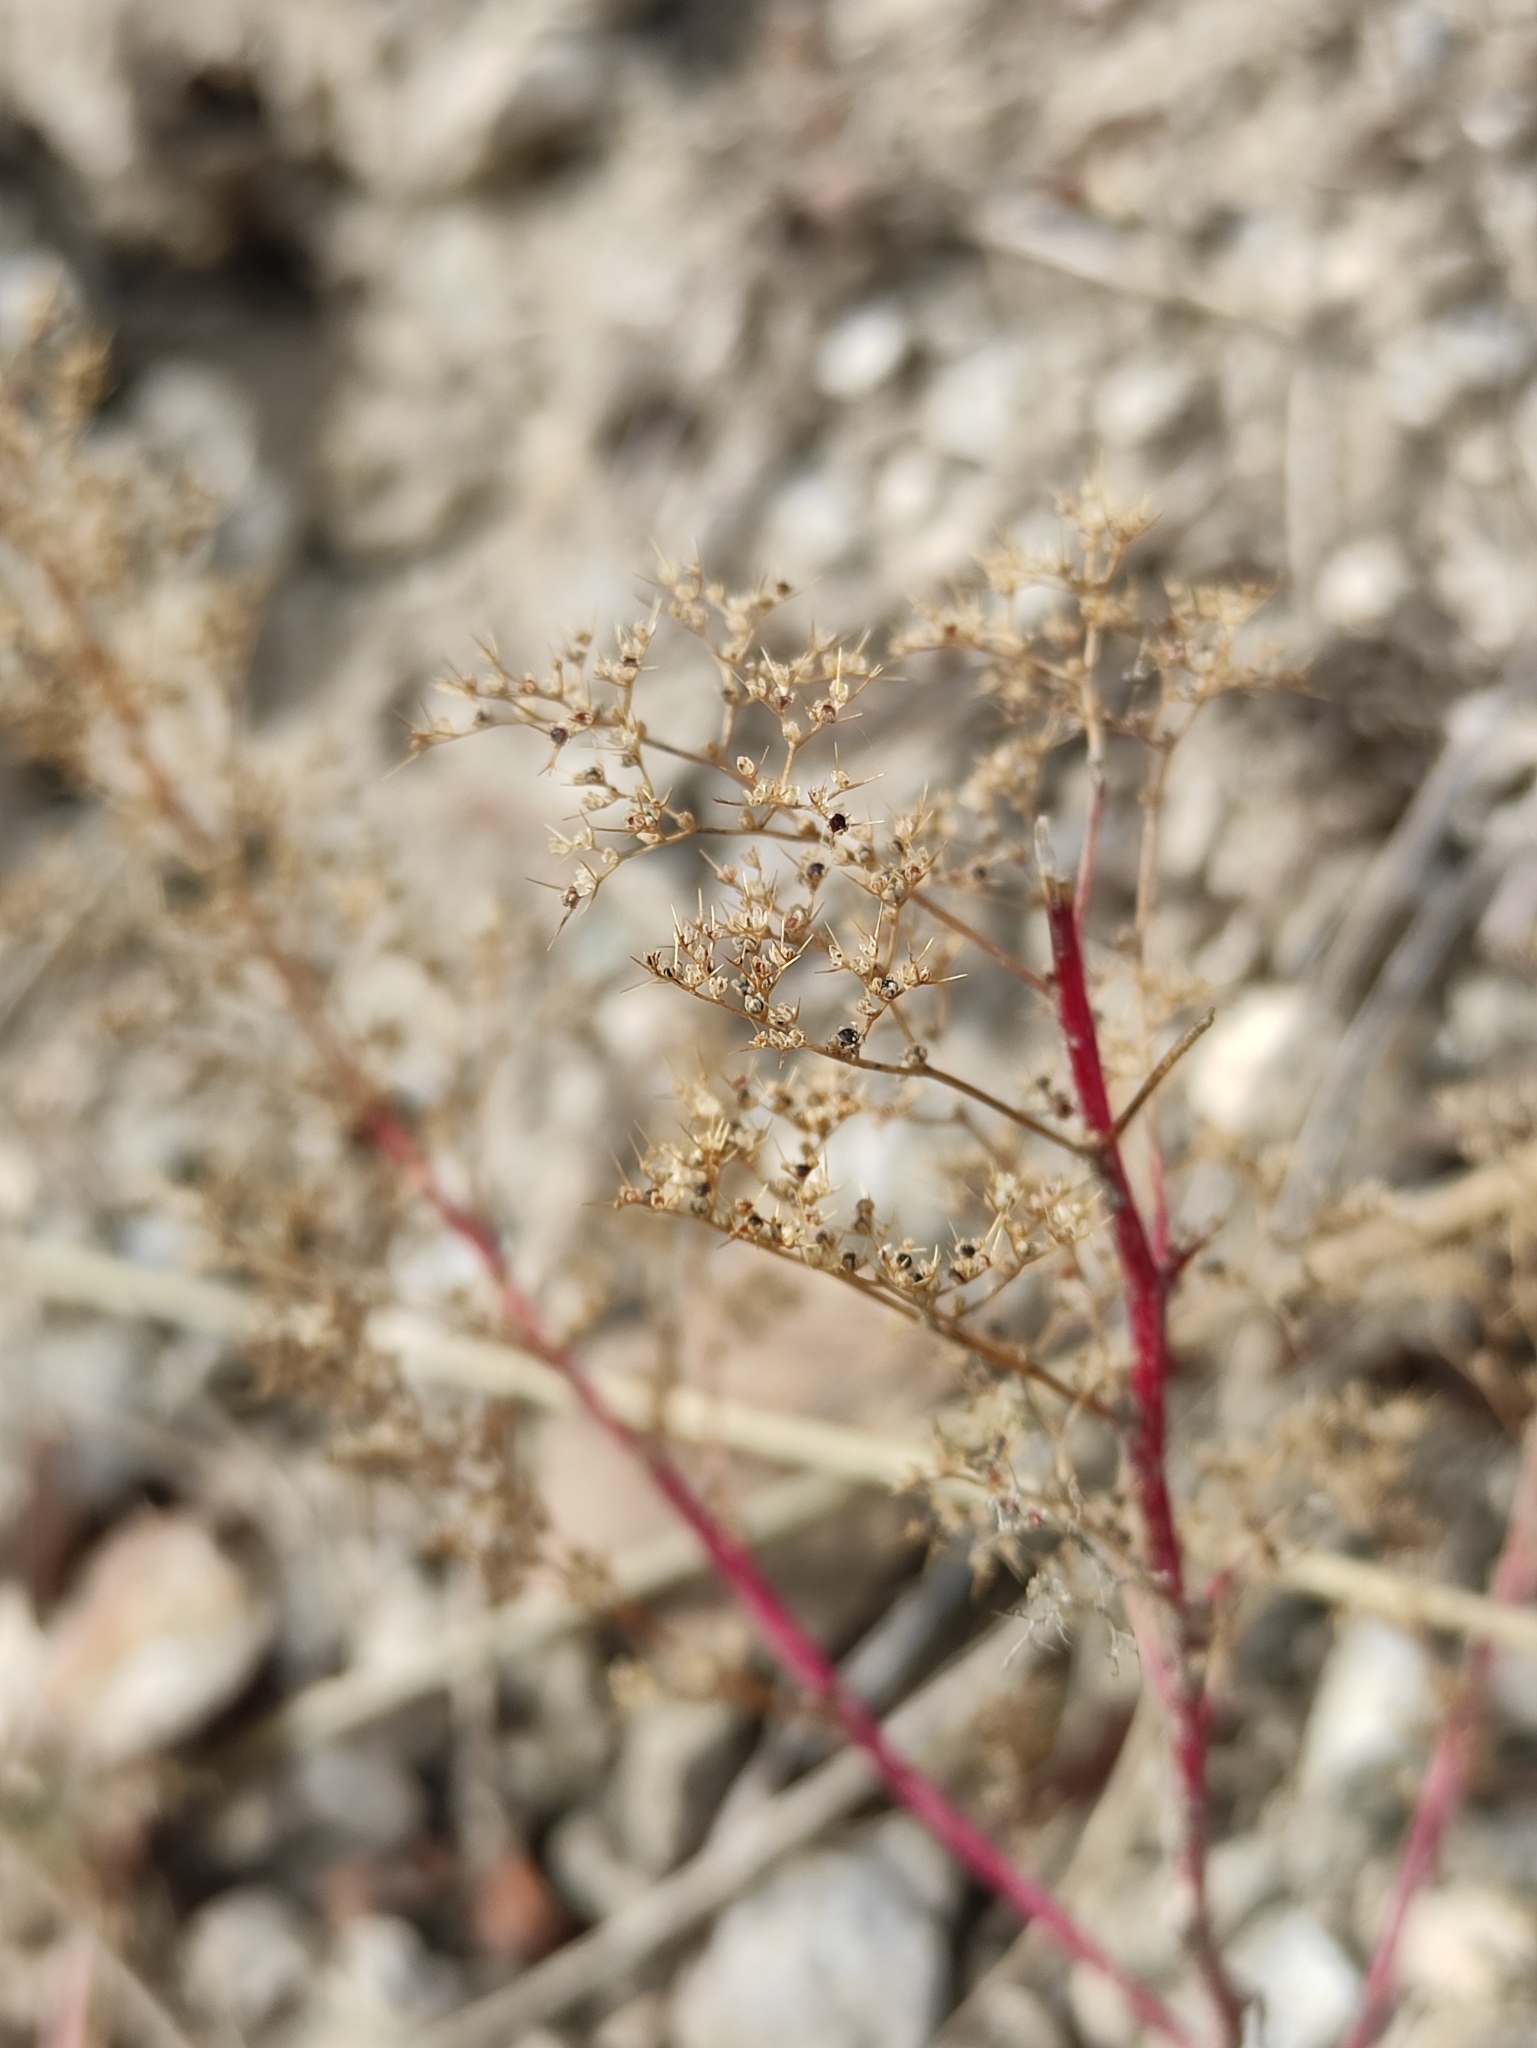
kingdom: Plantae
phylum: Tracheophyta
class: Magnoliopsida
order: Caryophyllales
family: Amaranthaceae
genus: Teloxys
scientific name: Teloxys aristata
